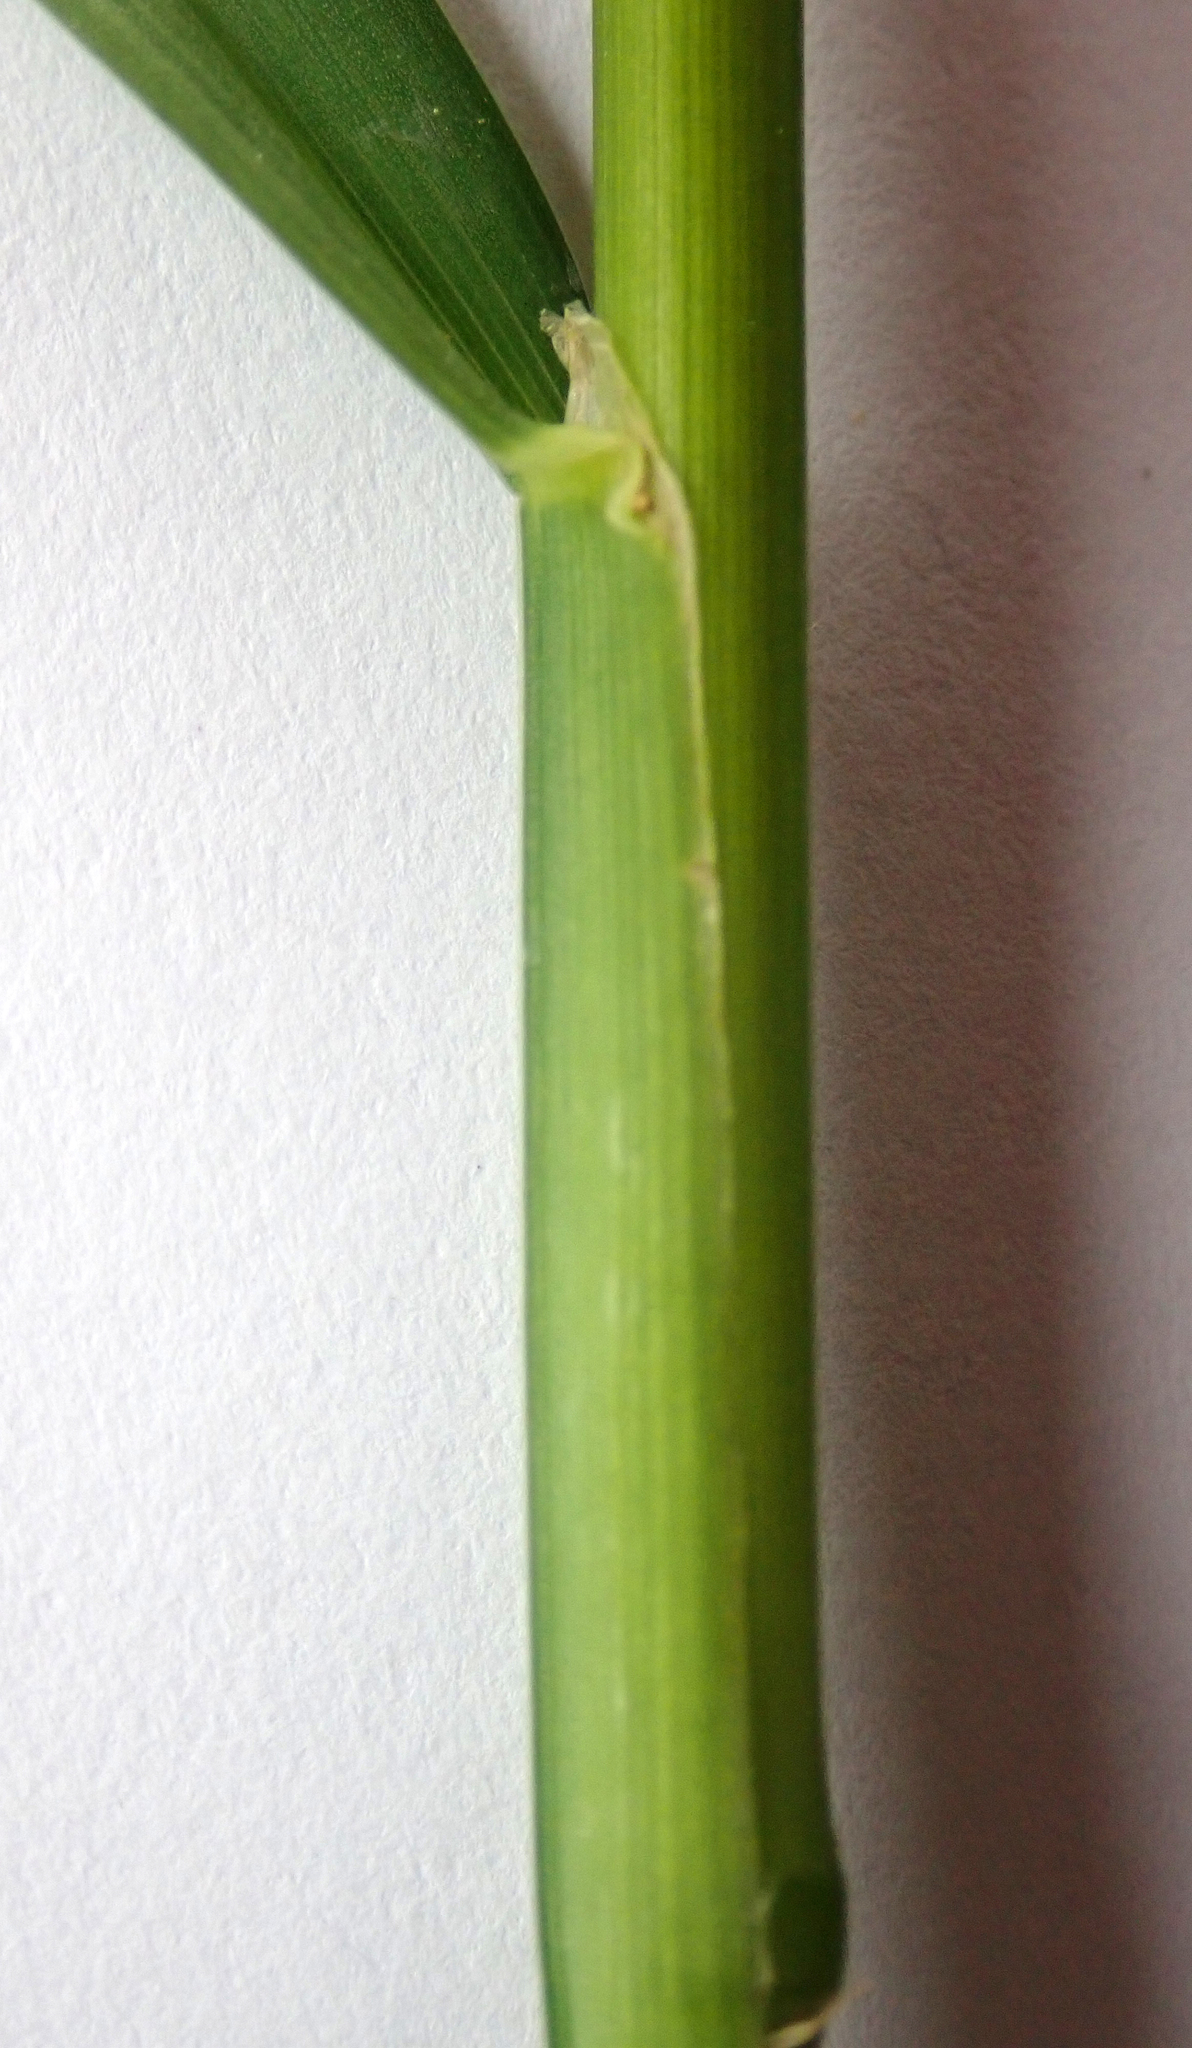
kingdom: Plantae
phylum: Tracheophyta
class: Liliopsida
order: Poales
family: Poaceae
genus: Dactylis
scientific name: Dactylis glomerata
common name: Orchardgrass
